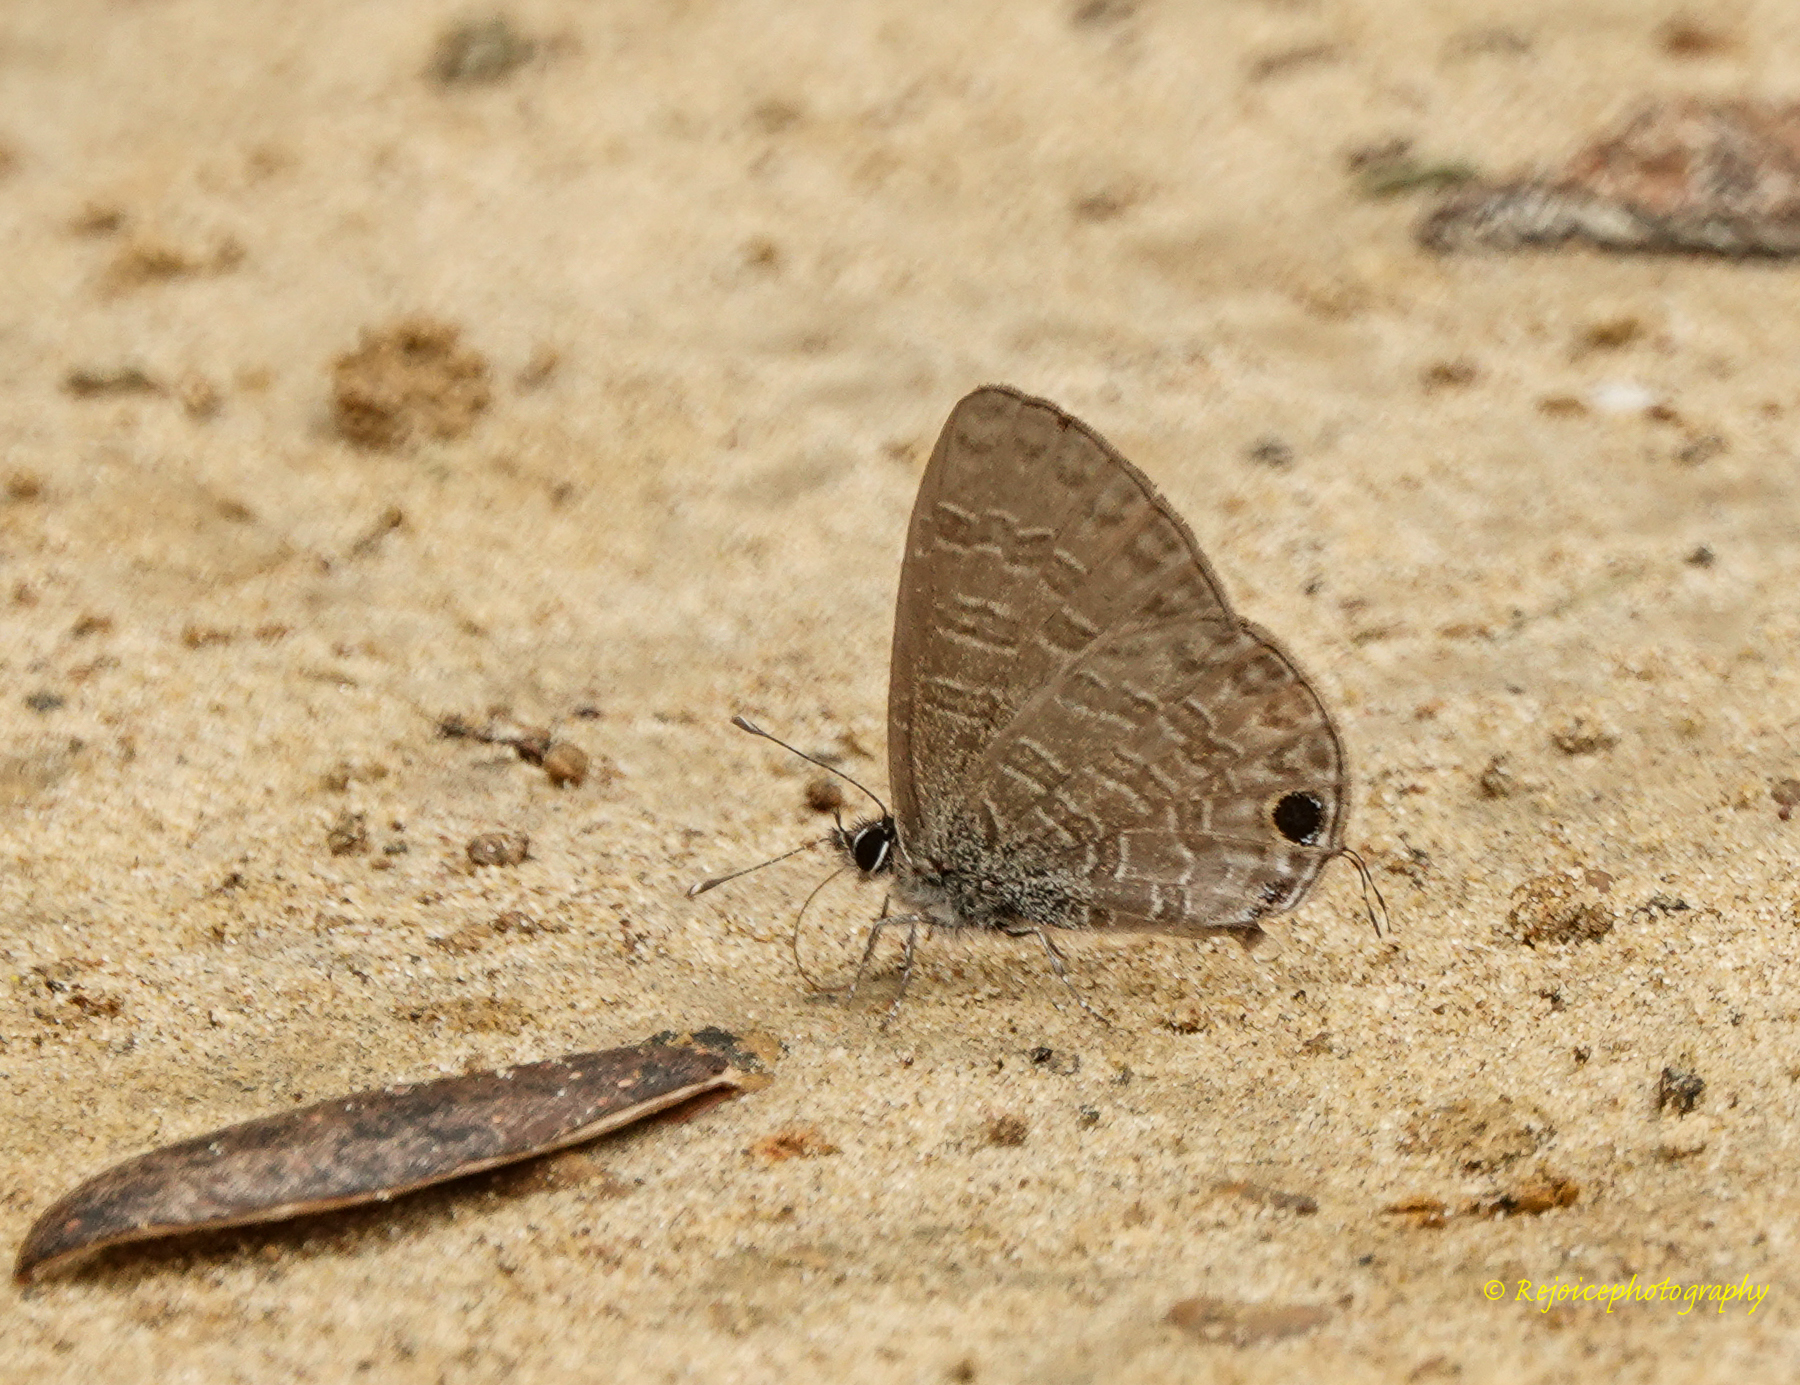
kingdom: Animalia
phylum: Arthropoda
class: Insecta
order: Lepidoptera
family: Lycaenidae
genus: Prosotas
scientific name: Prosotas nora
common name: Common line blue
